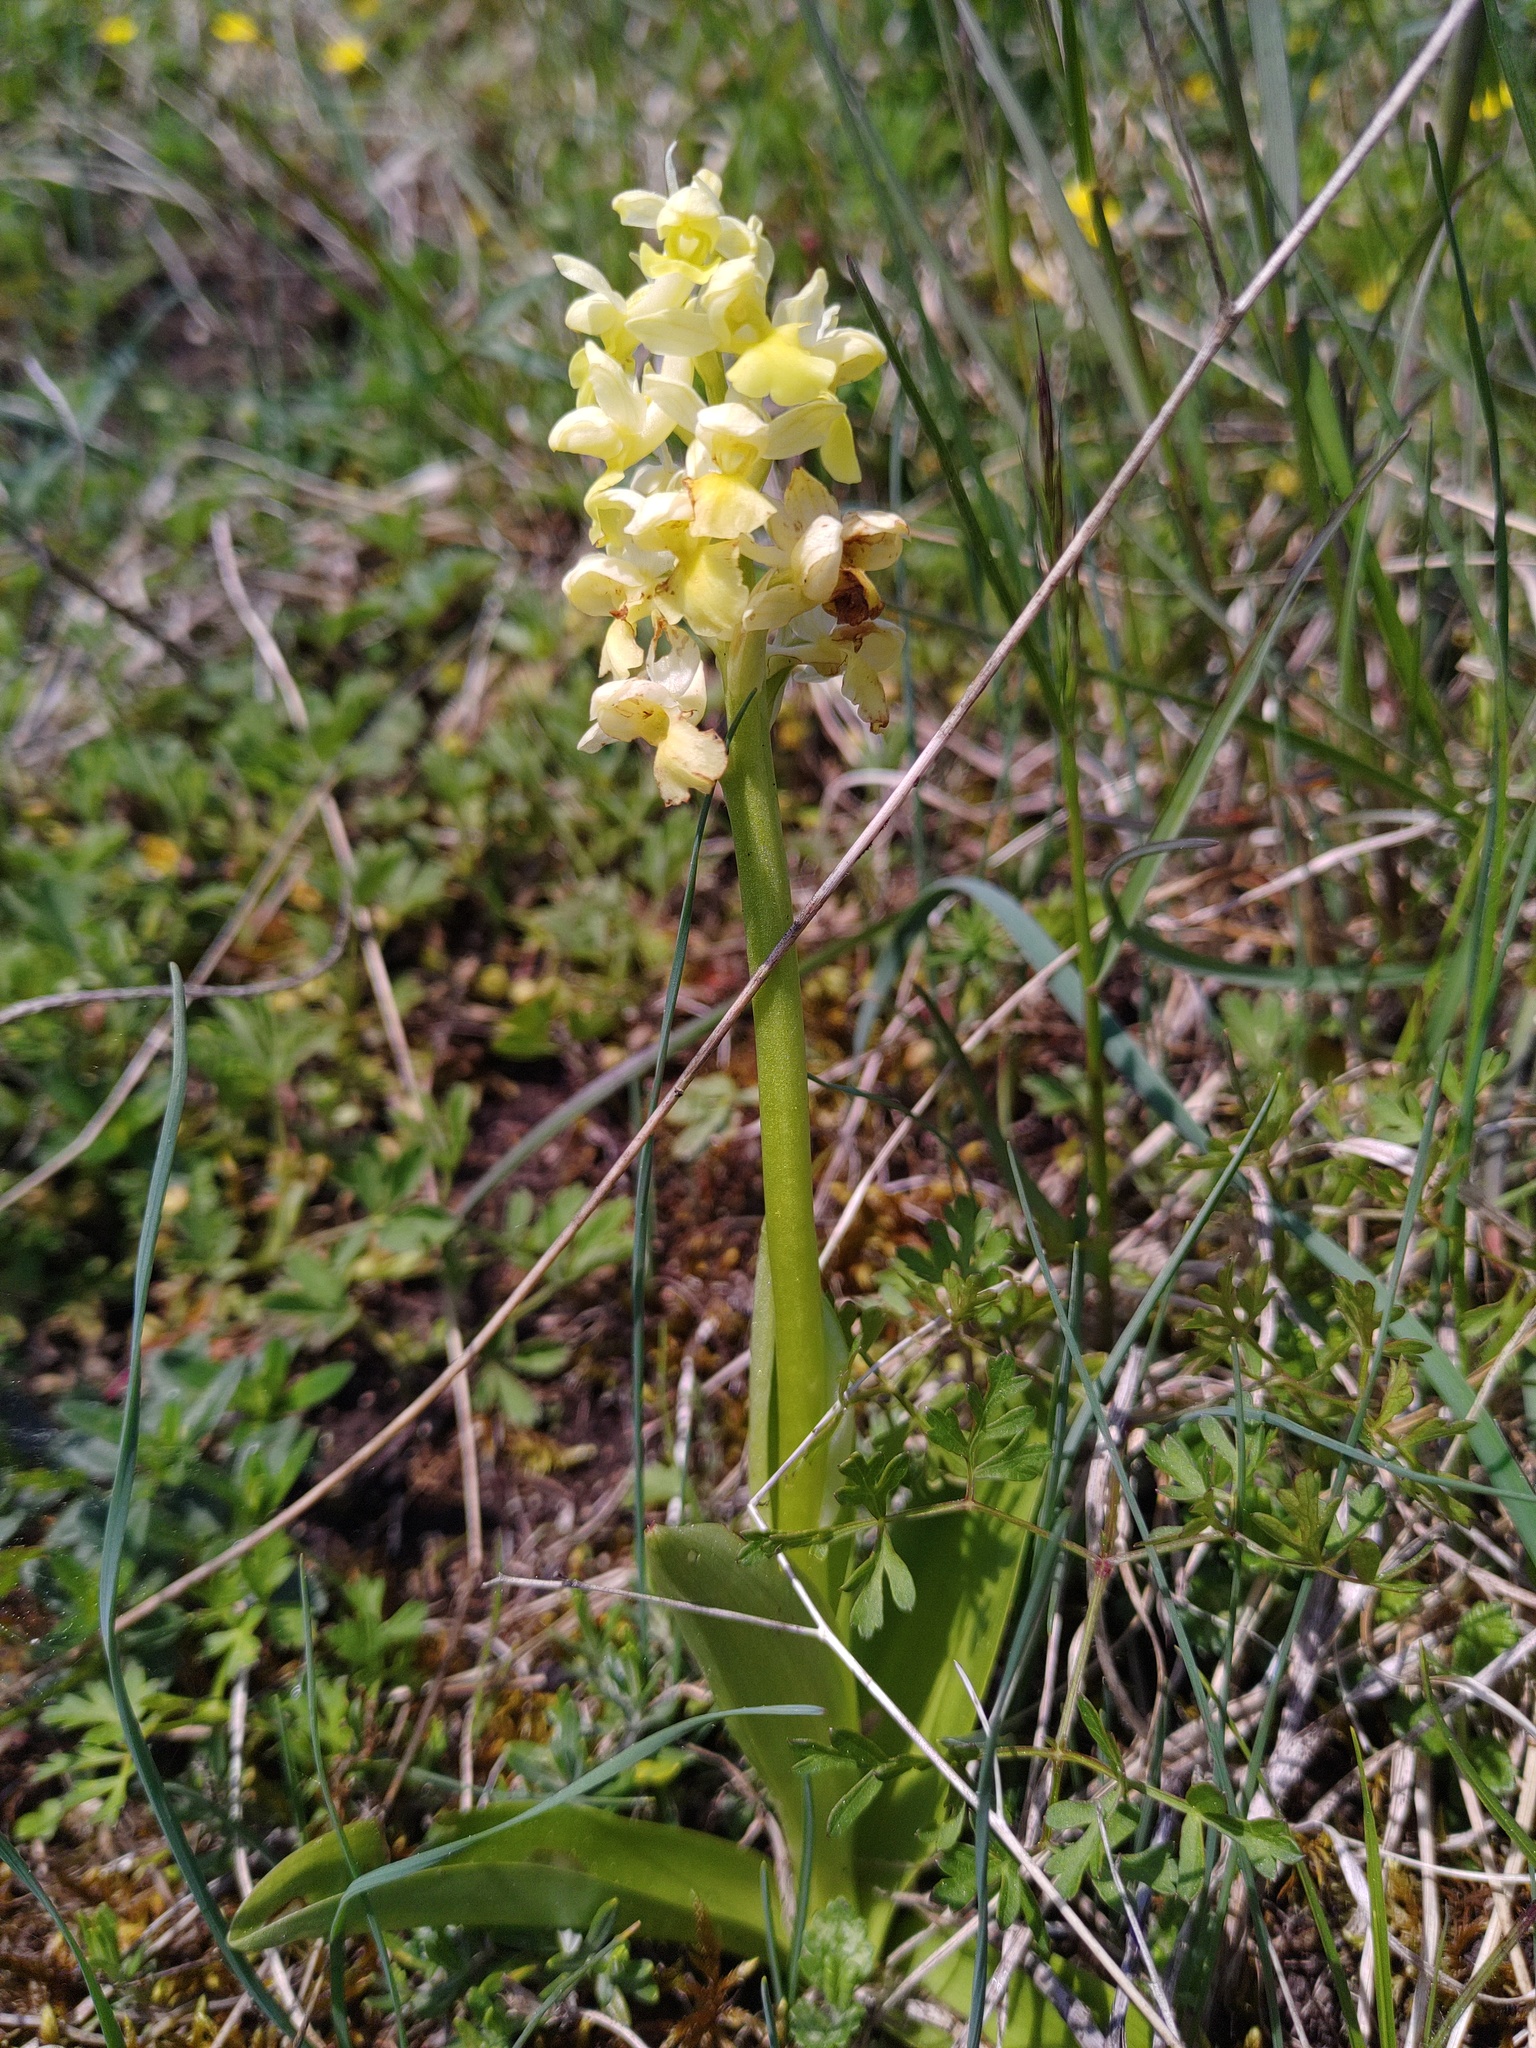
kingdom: Plantae
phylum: Tracheophyta
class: Liliopsida
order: Asparagales
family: Orchidaceae
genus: Orchis
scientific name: Orchis pallens
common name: Pale-flowered orchid
